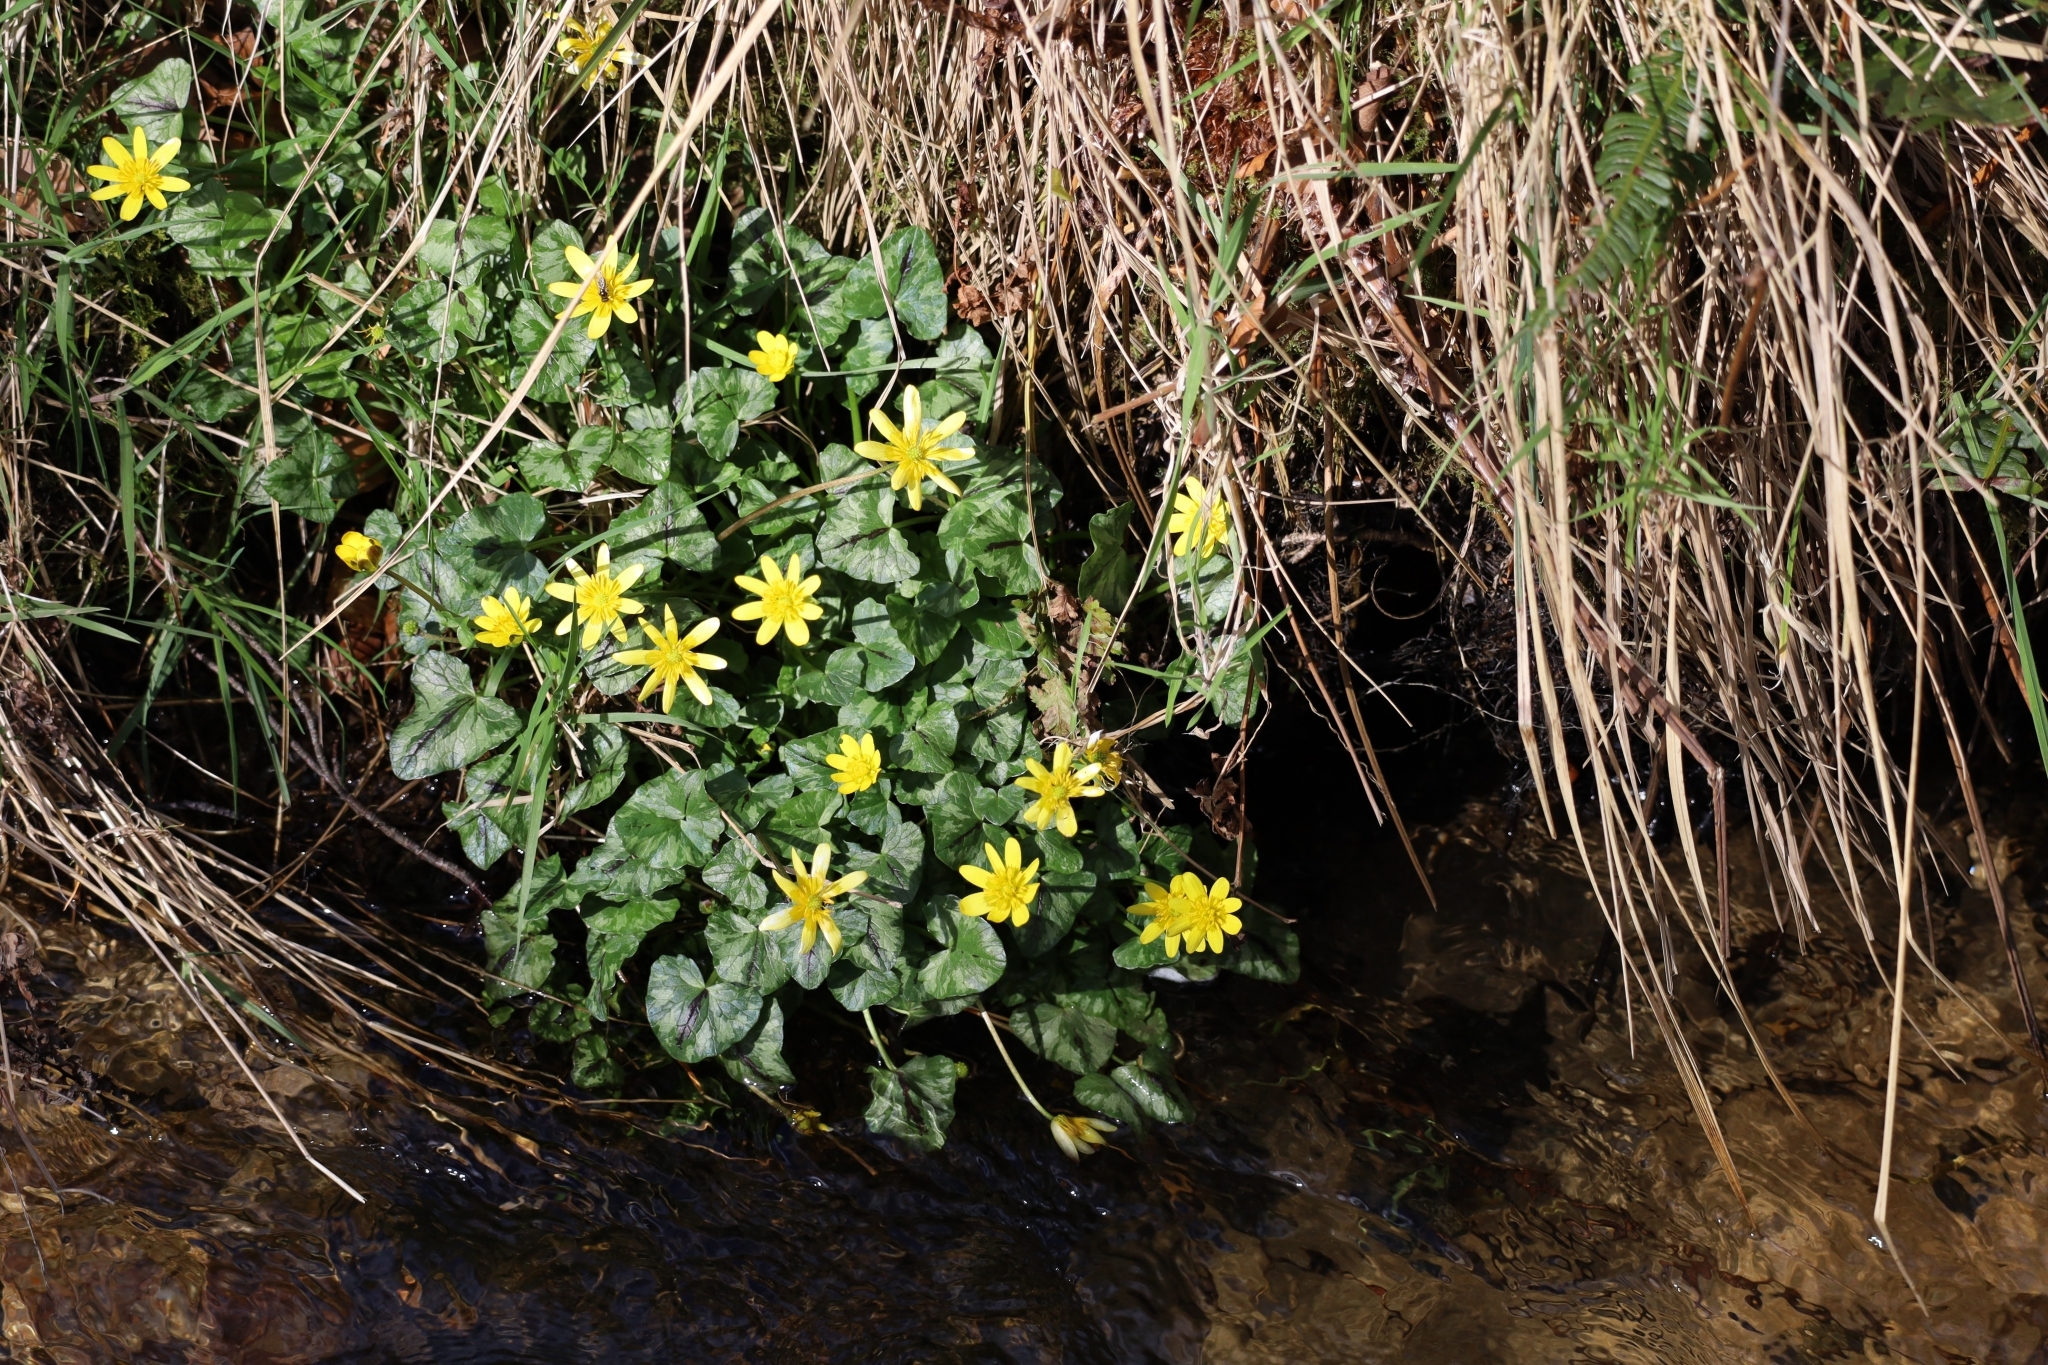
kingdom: Plantae
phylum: Tracheophyta
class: Magnoliopsida
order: Ranunculales
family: Ranunculaceae
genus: Ficaria
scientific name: Ficaria verna
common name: Lesser celandine
